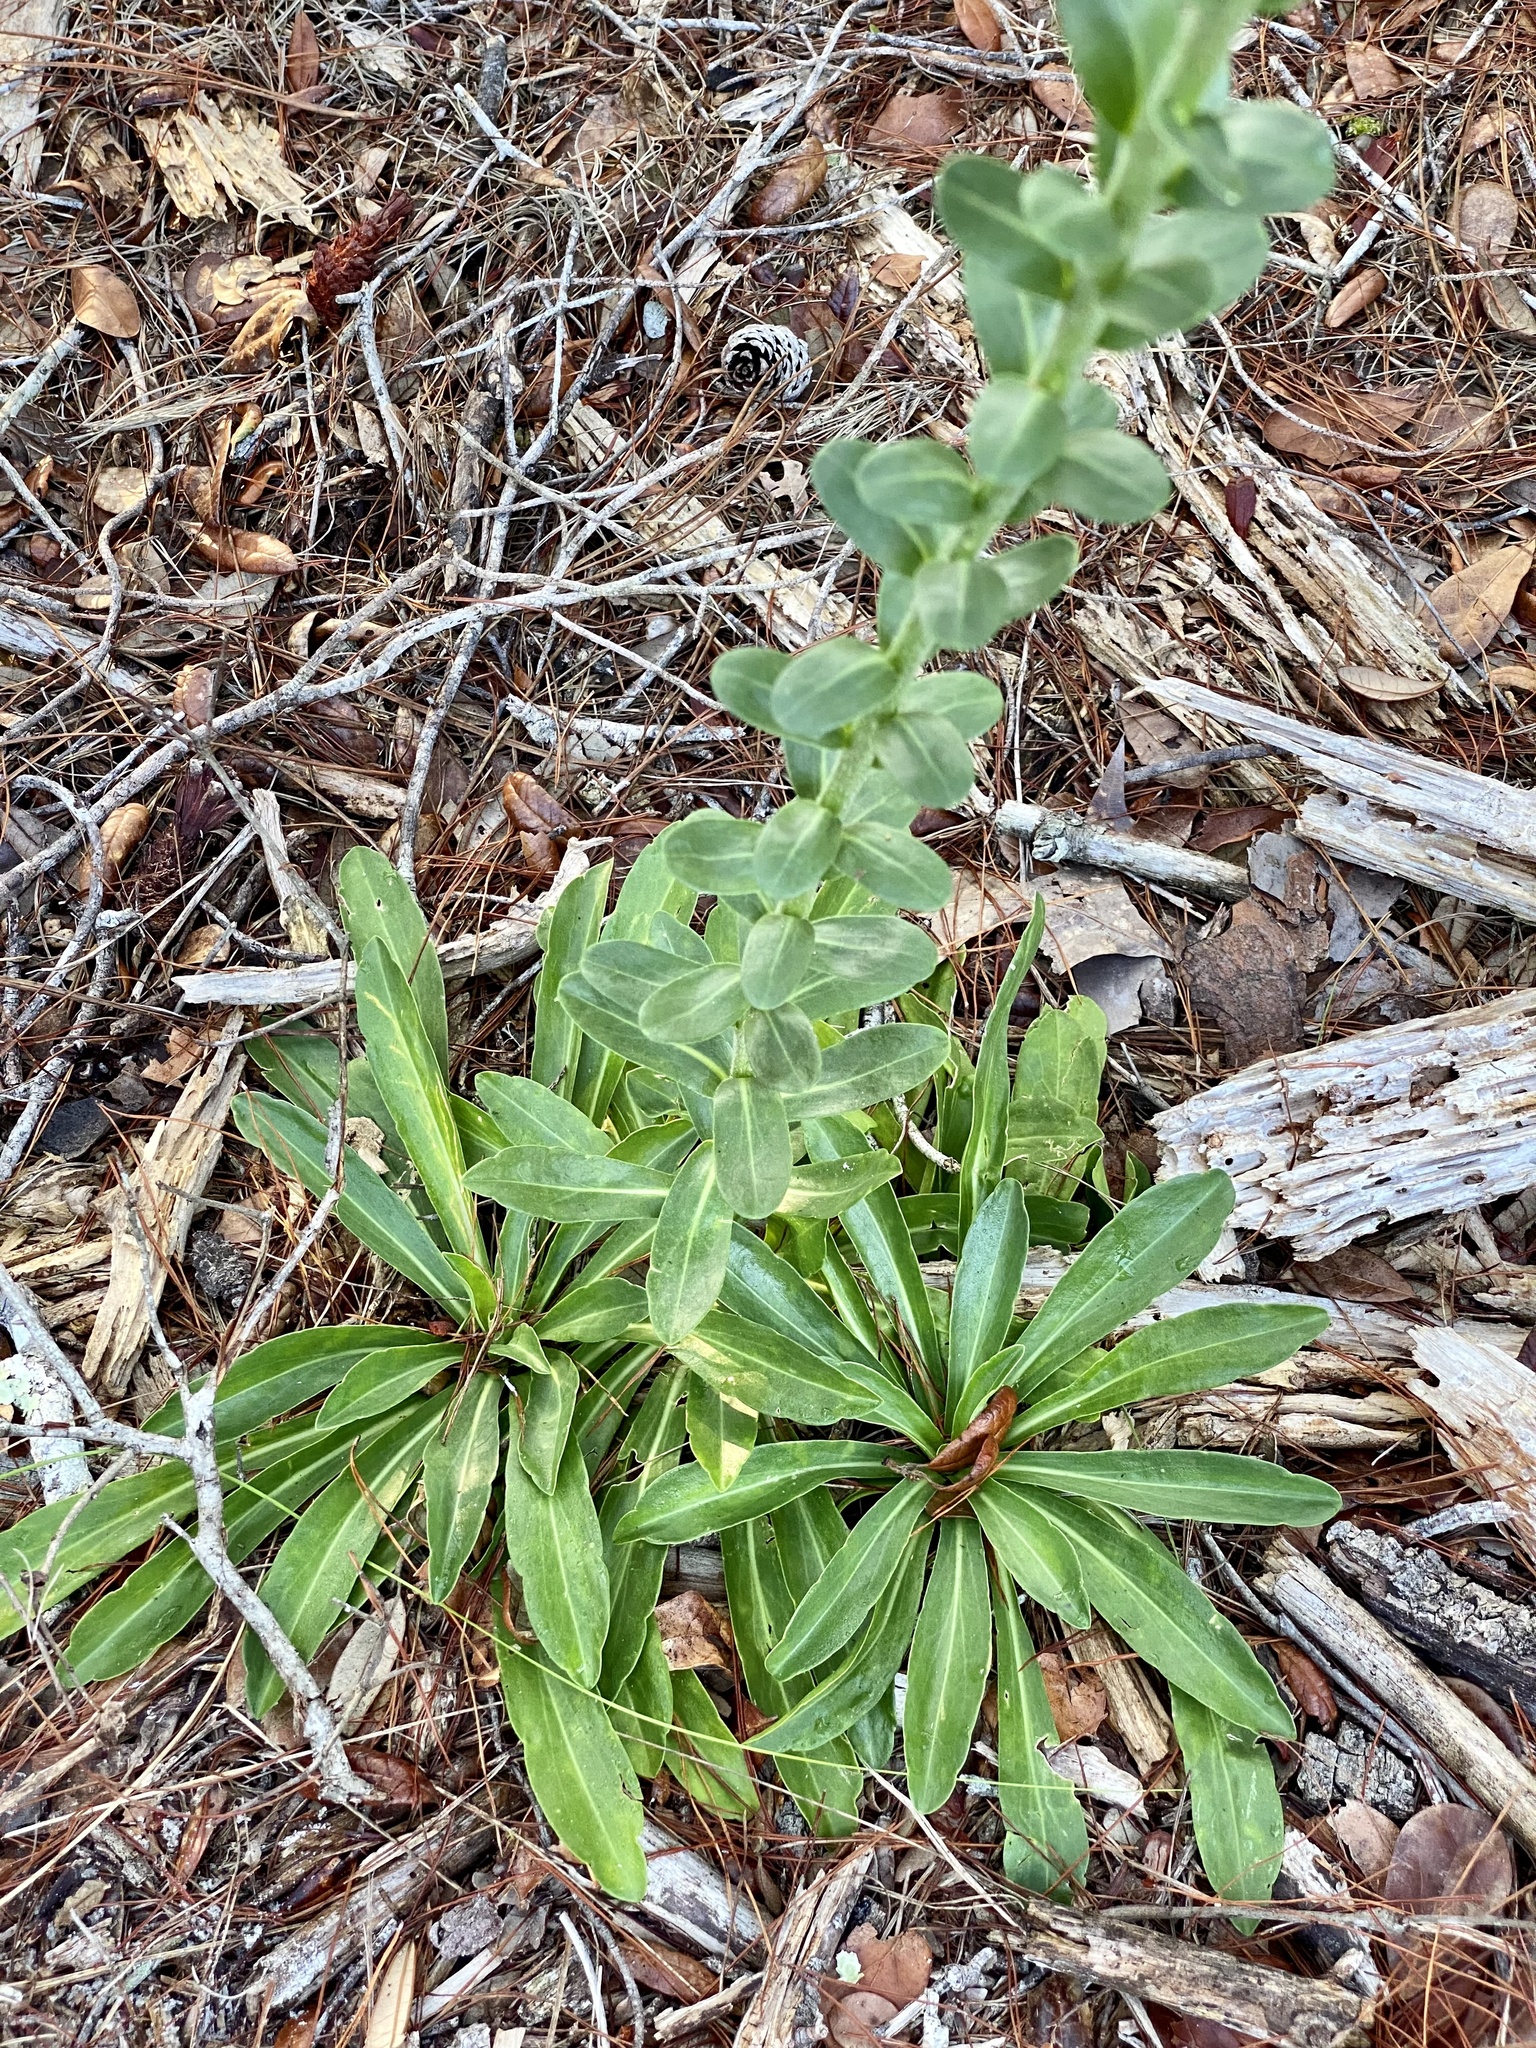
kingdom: Plantae
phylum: Tracheophyta
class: Magnoliopsida
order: Asterales
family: Asteraceae
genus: Carphephorus
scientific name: Carphephorus corymbosus
